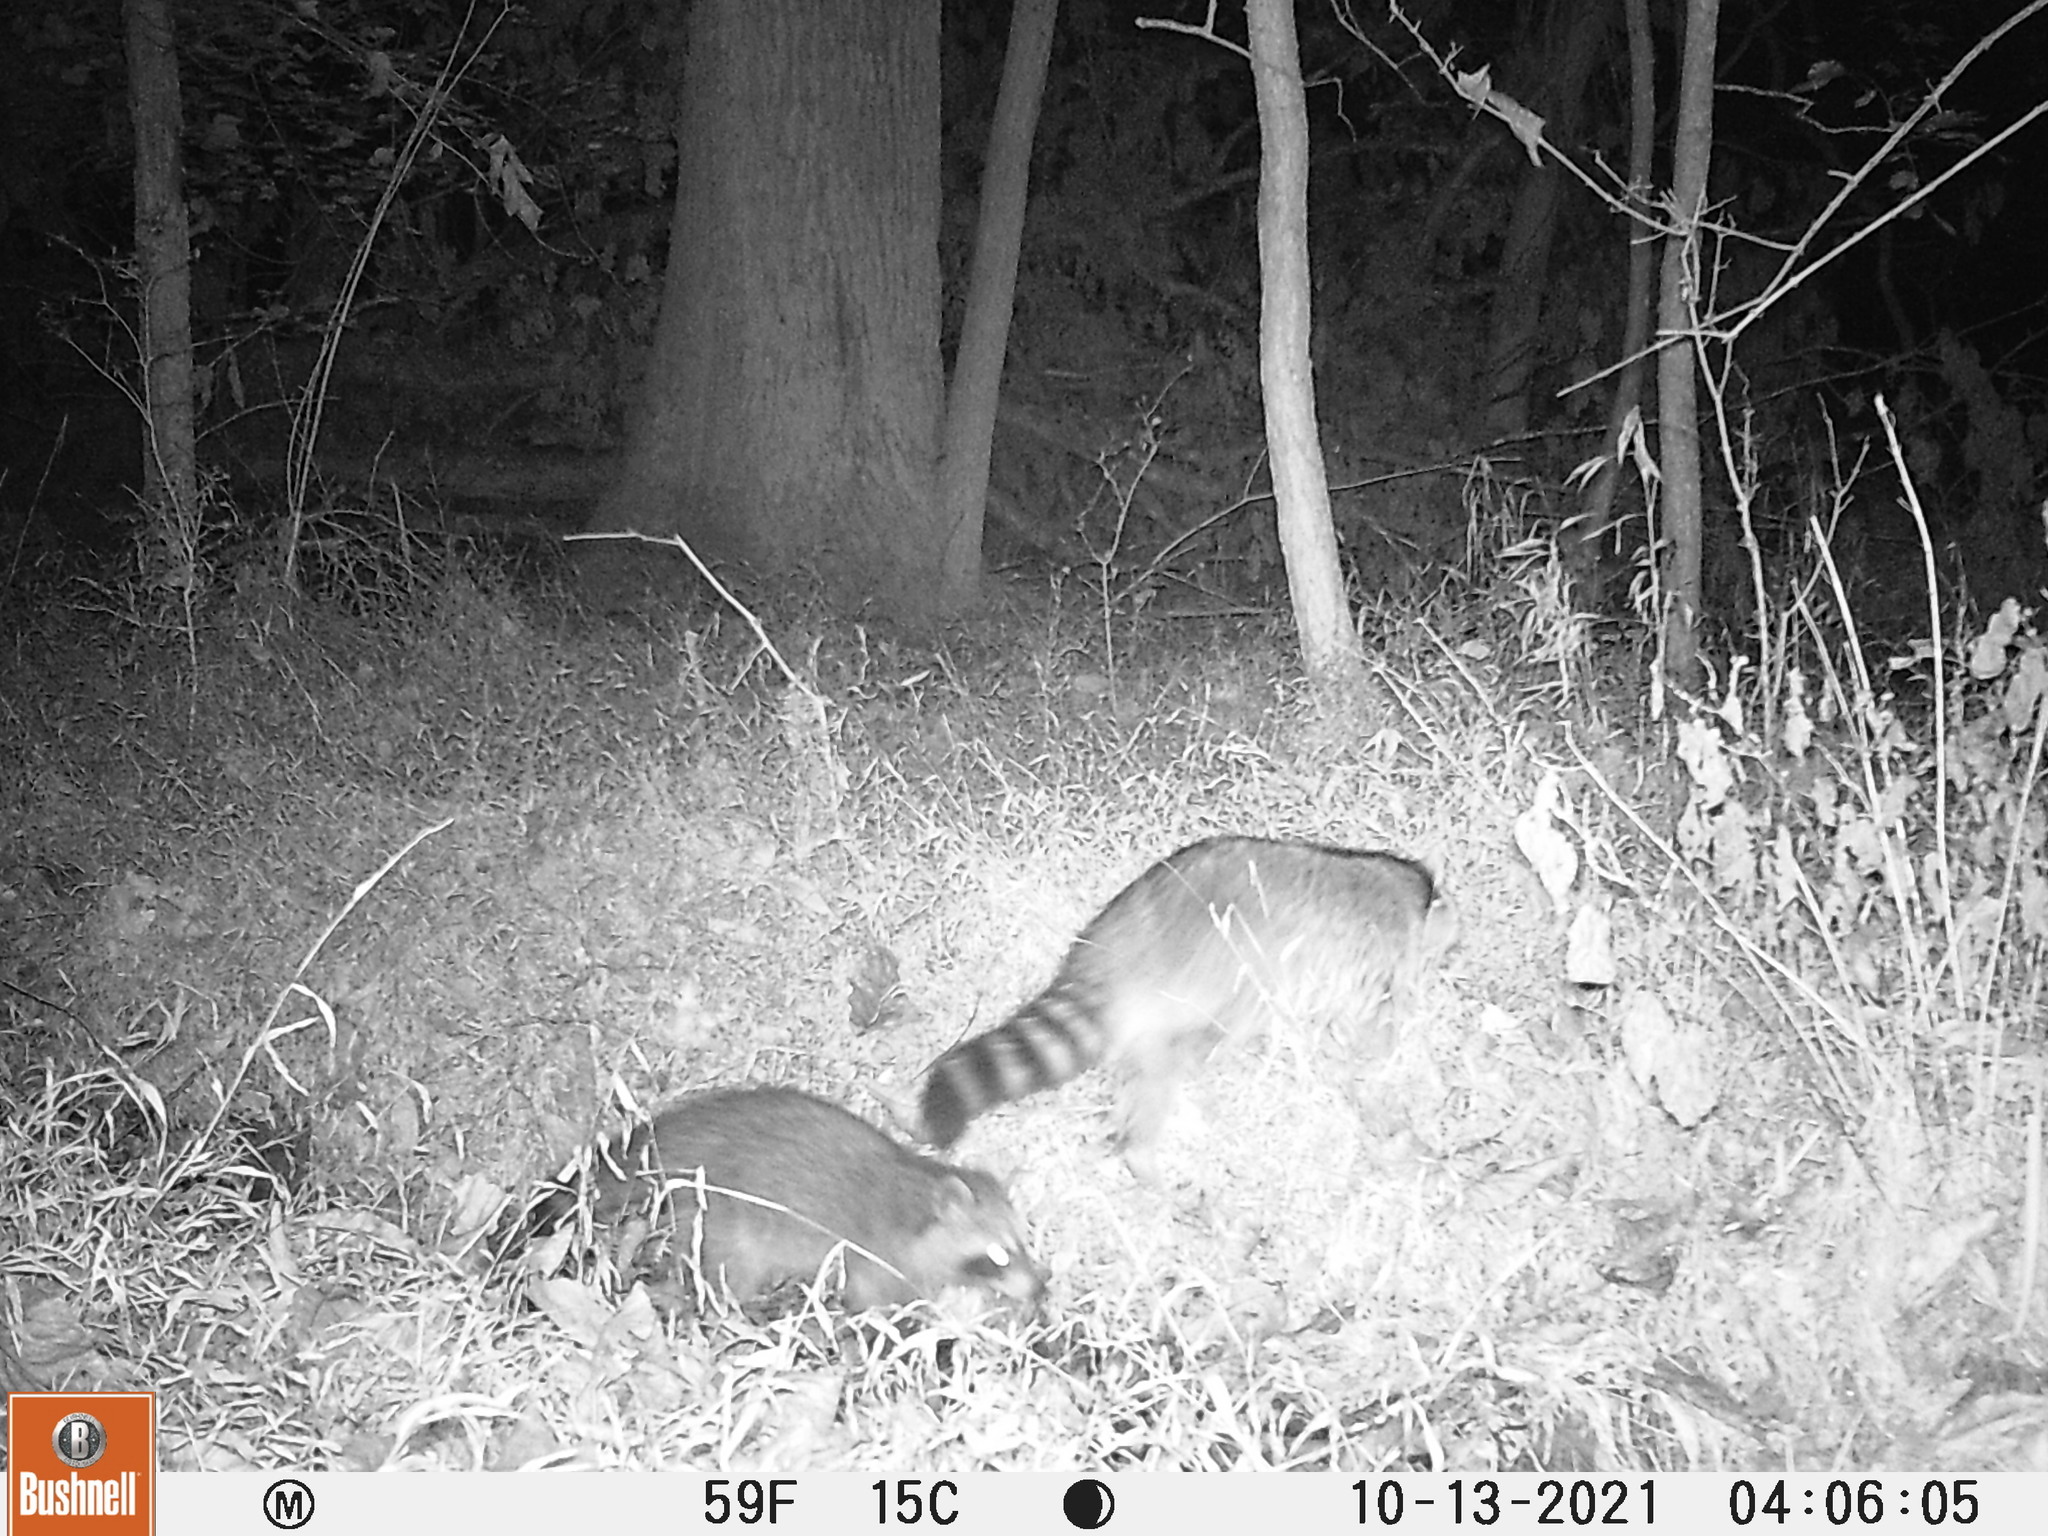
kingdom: Animalia
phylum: Chordata
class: Mammalia
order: Carnivora
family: Procyonidae
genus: Procyon
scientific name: Procyon lotor
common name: Raccoon
